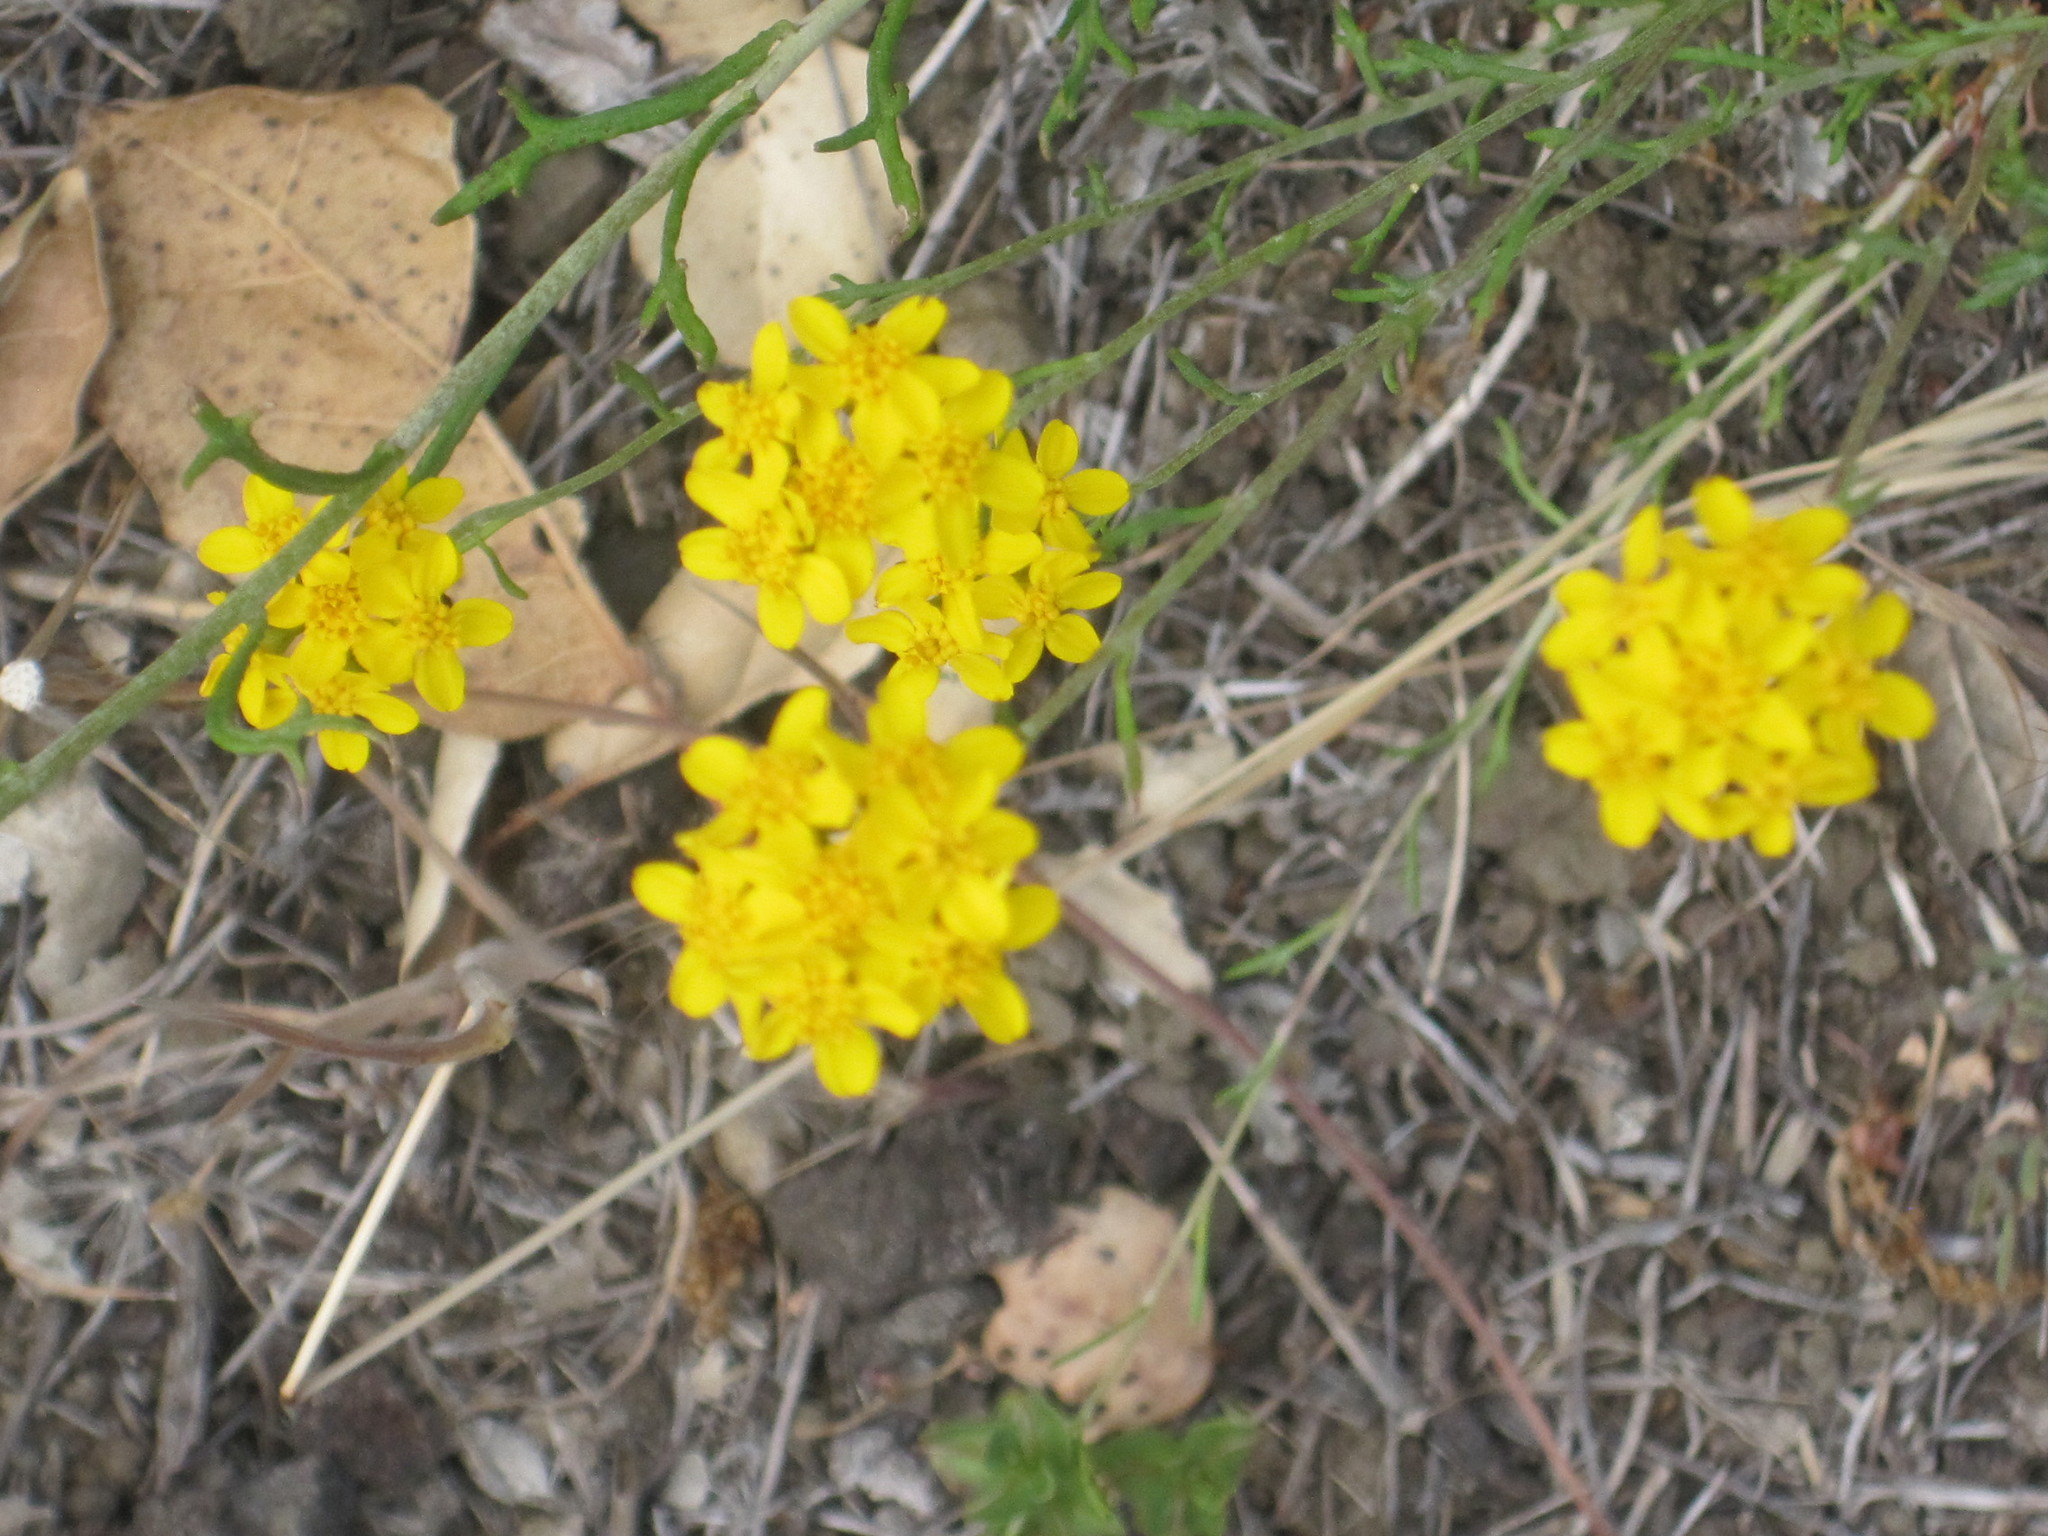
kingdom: Plantae
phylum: Tracheophyta
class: Magnoliopsida
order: Asterales
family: Asteraceae
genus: Eriophyllum
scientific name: Eriophyllum confertiflorum
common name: Golden-yarrow
